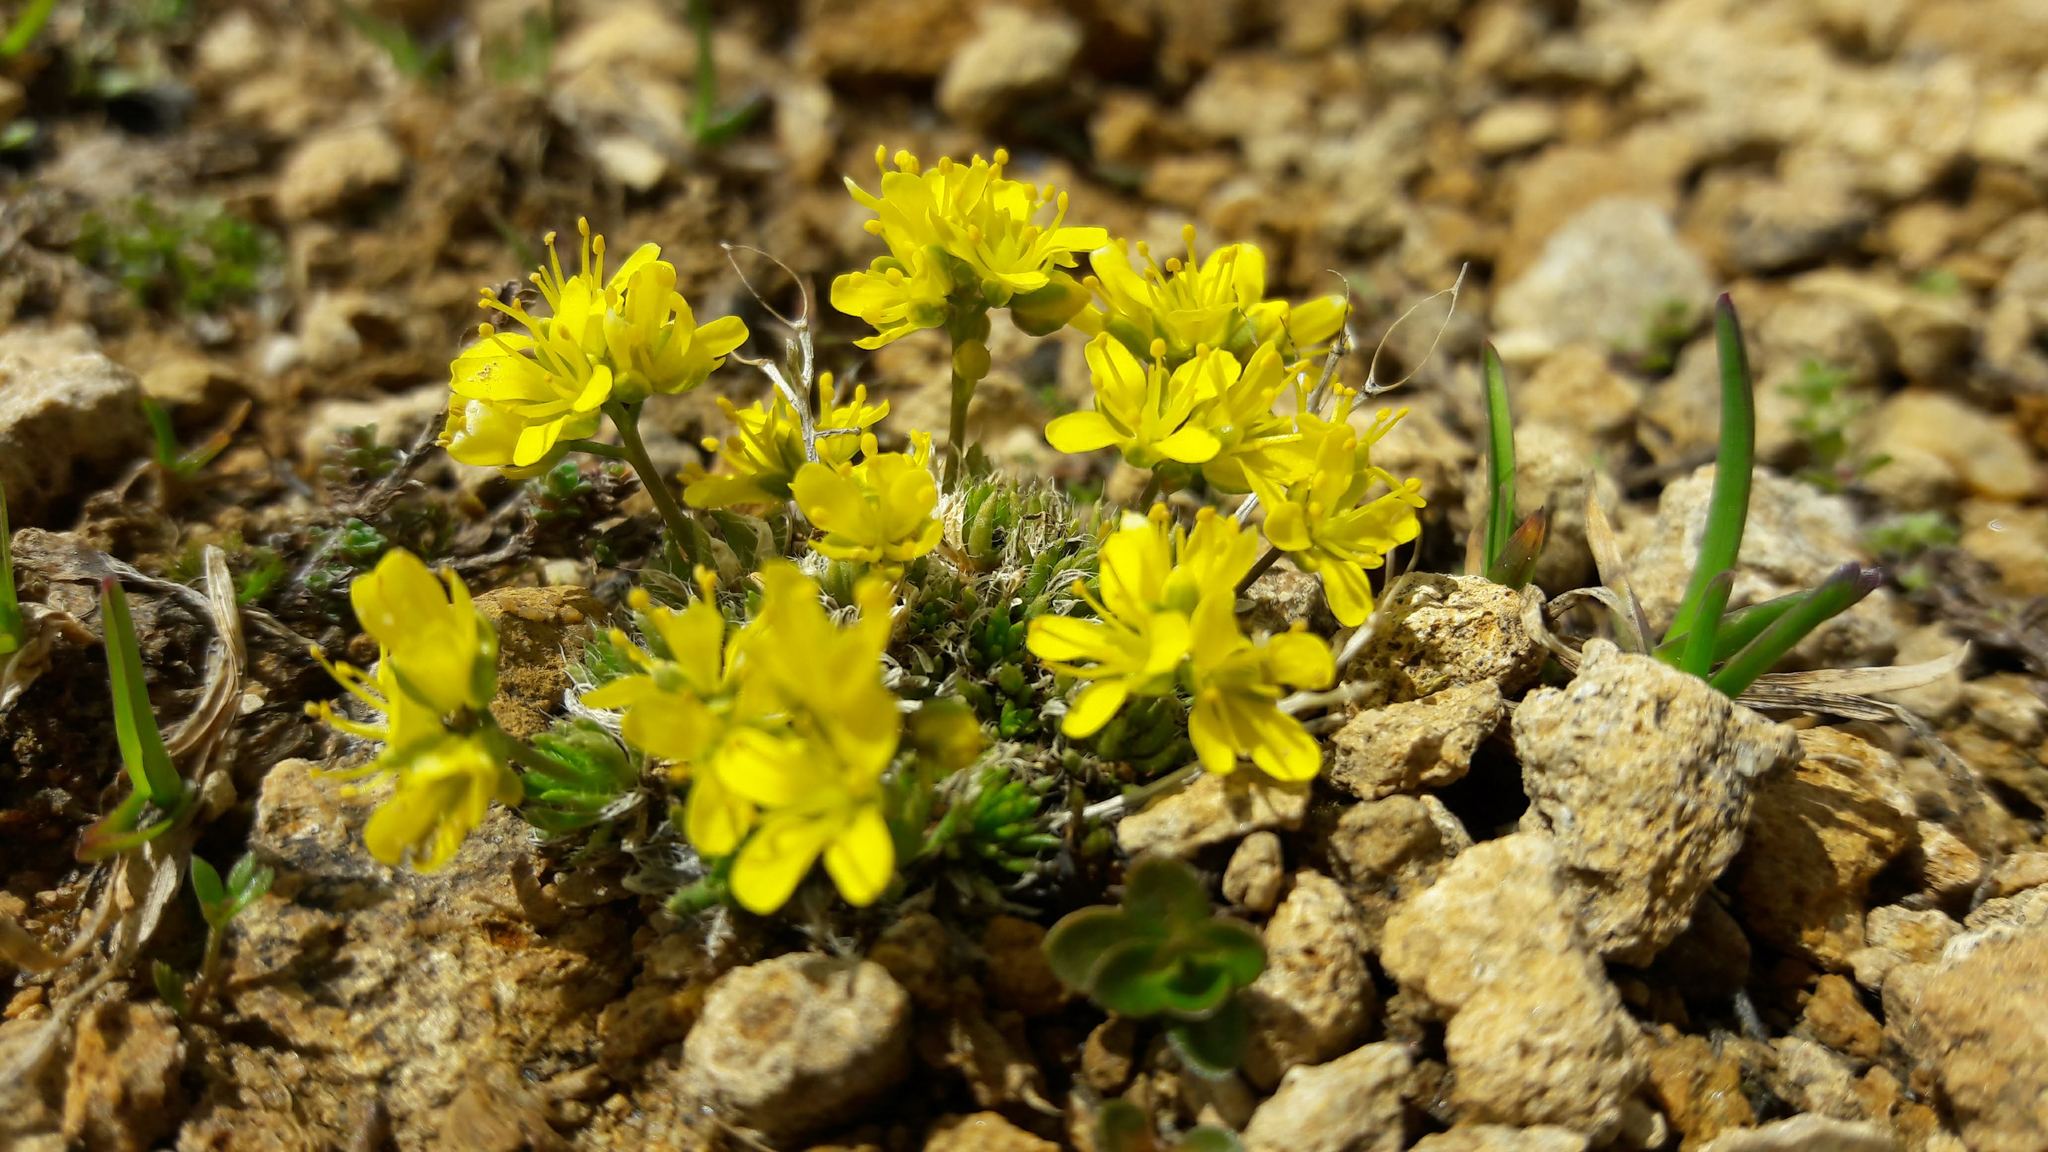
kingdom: Plantae
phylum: Tracheophyta
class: Magnoliopsida
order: Brassicales
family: Brassicaceae
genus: Draba
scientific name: Draba aizoides
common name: Yellow whitlowgrass
